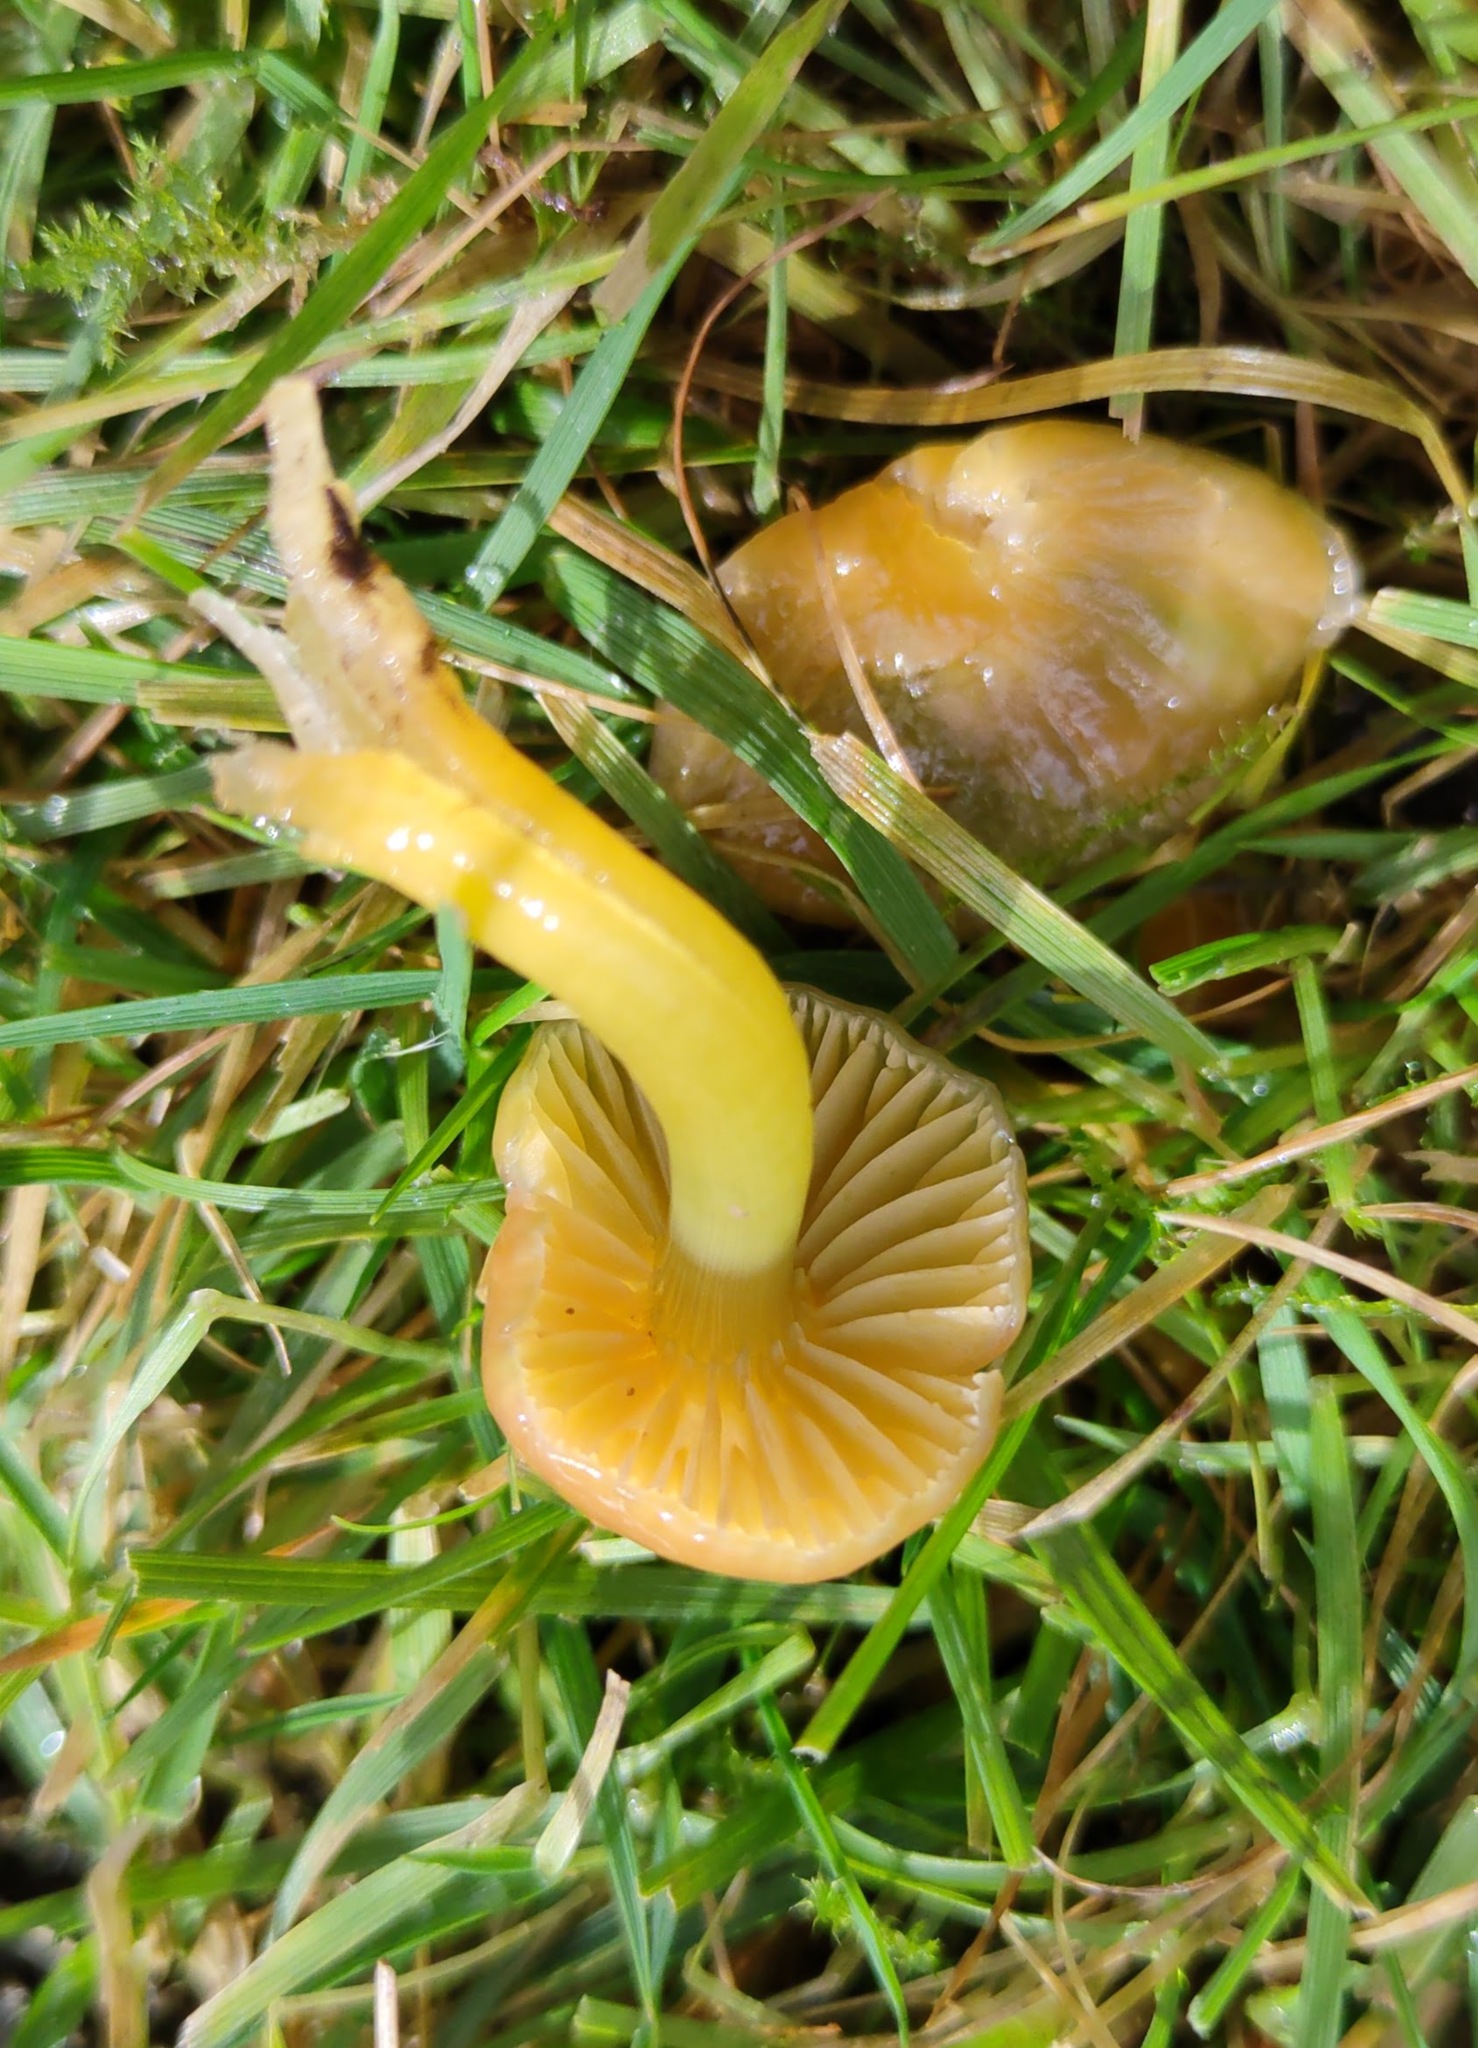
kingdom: Fungi
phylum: Basidiomycota
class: Agaricomycetes
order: Agaricales
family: Hygrophoraceae
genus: Gliophorus
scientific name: Gliophorus psittacinus
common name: Parrot wax-cap
